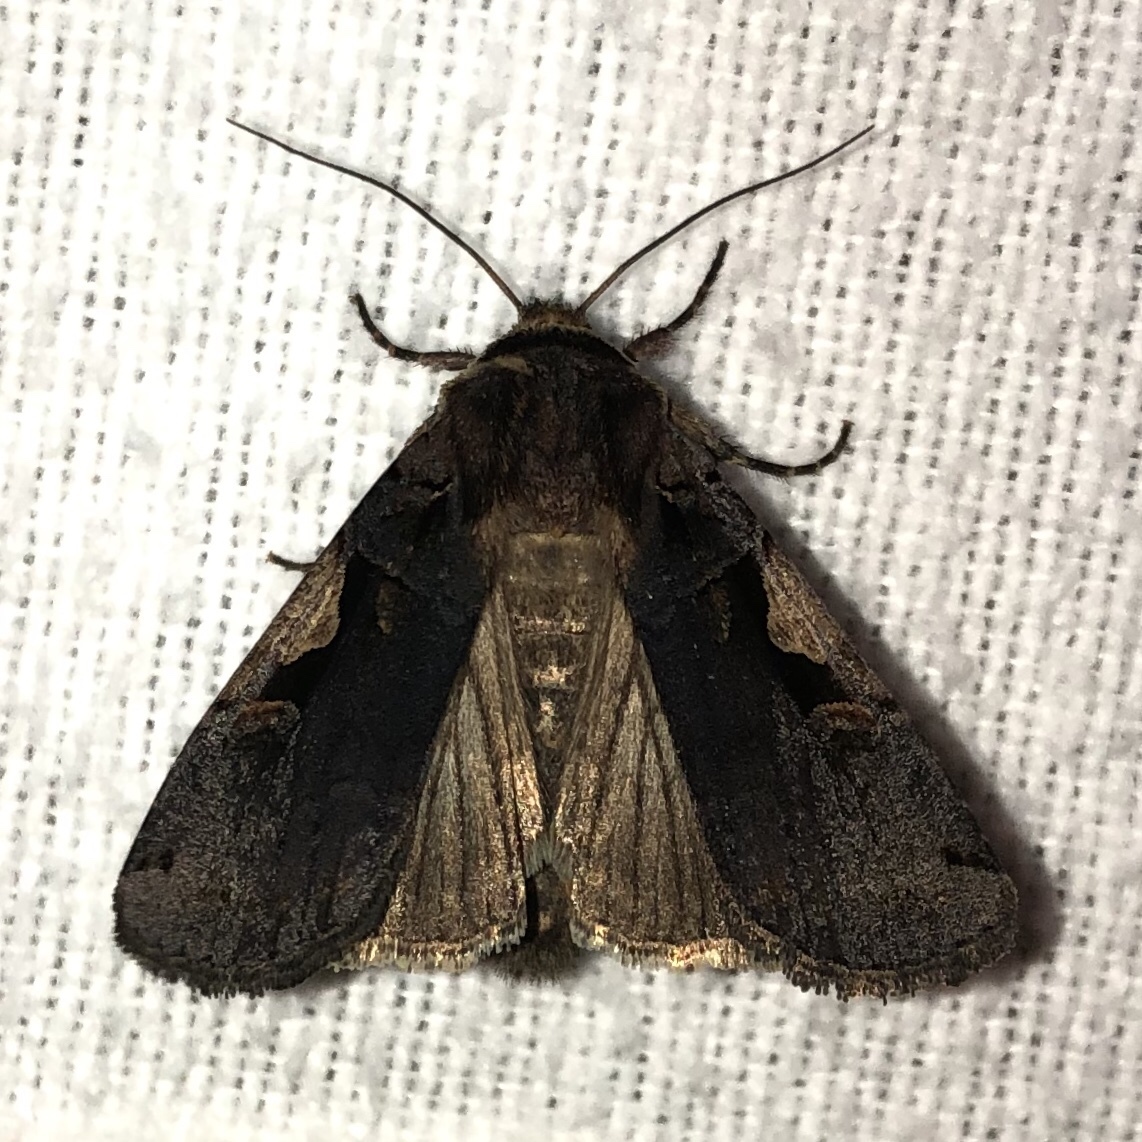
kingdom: Animalia
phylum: Arthropoda
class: Insecta
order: Lepidoptera
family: Noctuidae
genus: Xestia
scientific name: Xestia dolosa
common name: Cutworm moth
